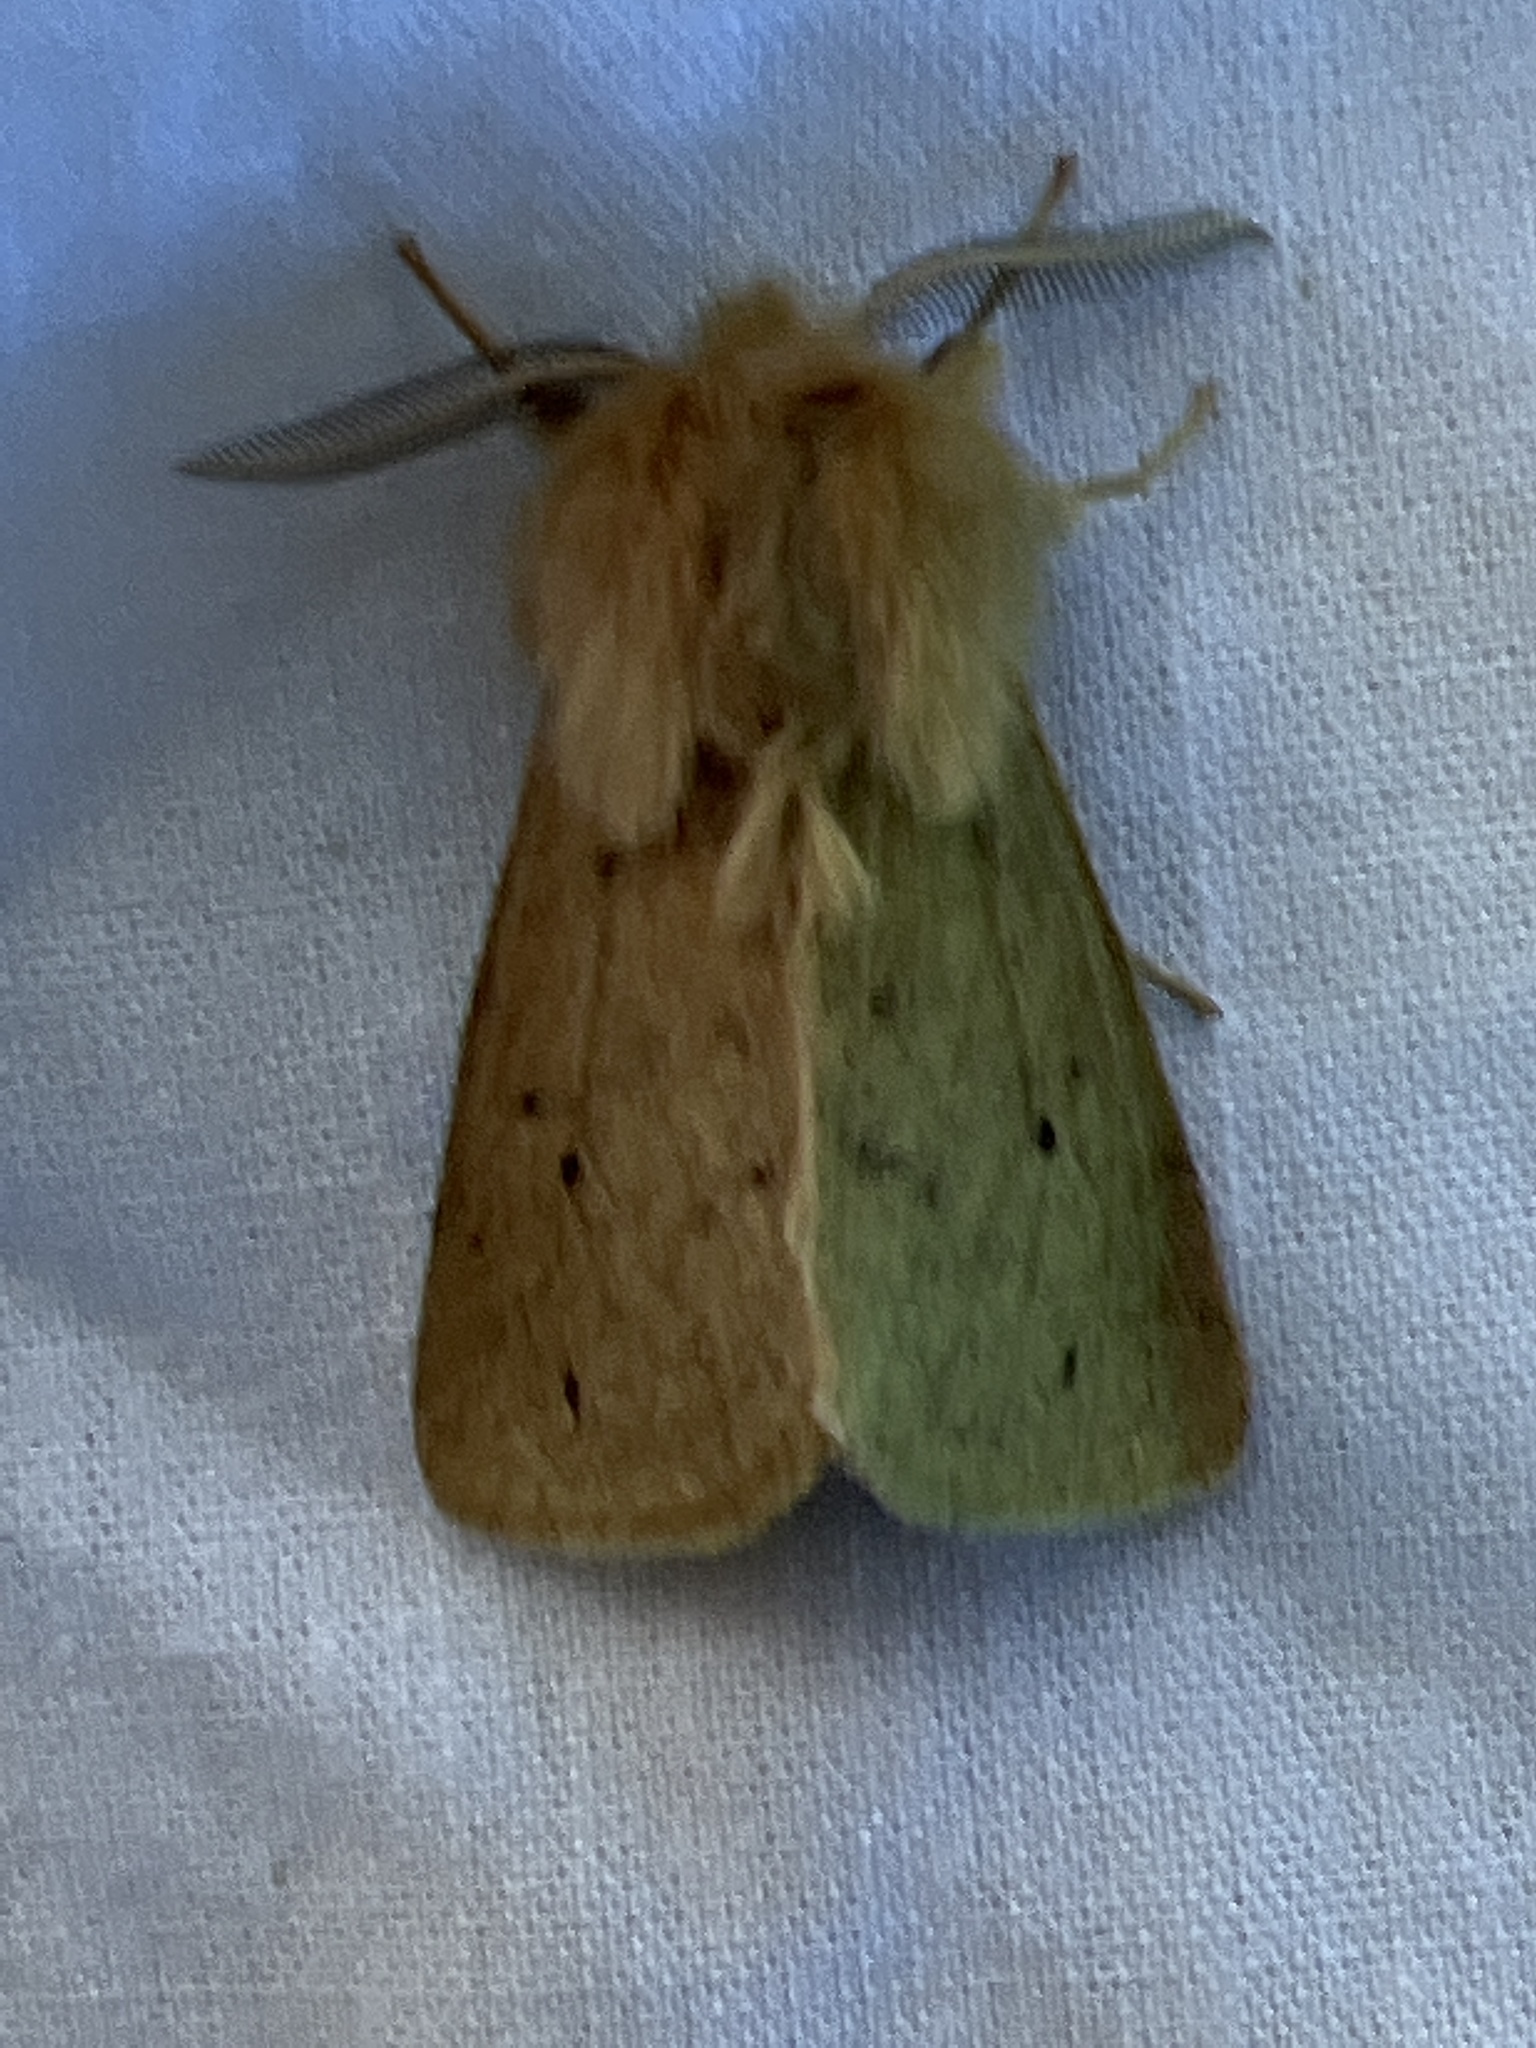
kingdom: Animalia
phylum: Arthropoda
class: Insecta
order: Lepidoptera
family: Erebidae
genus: Spilosoma
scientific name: Spilosoma vagans
